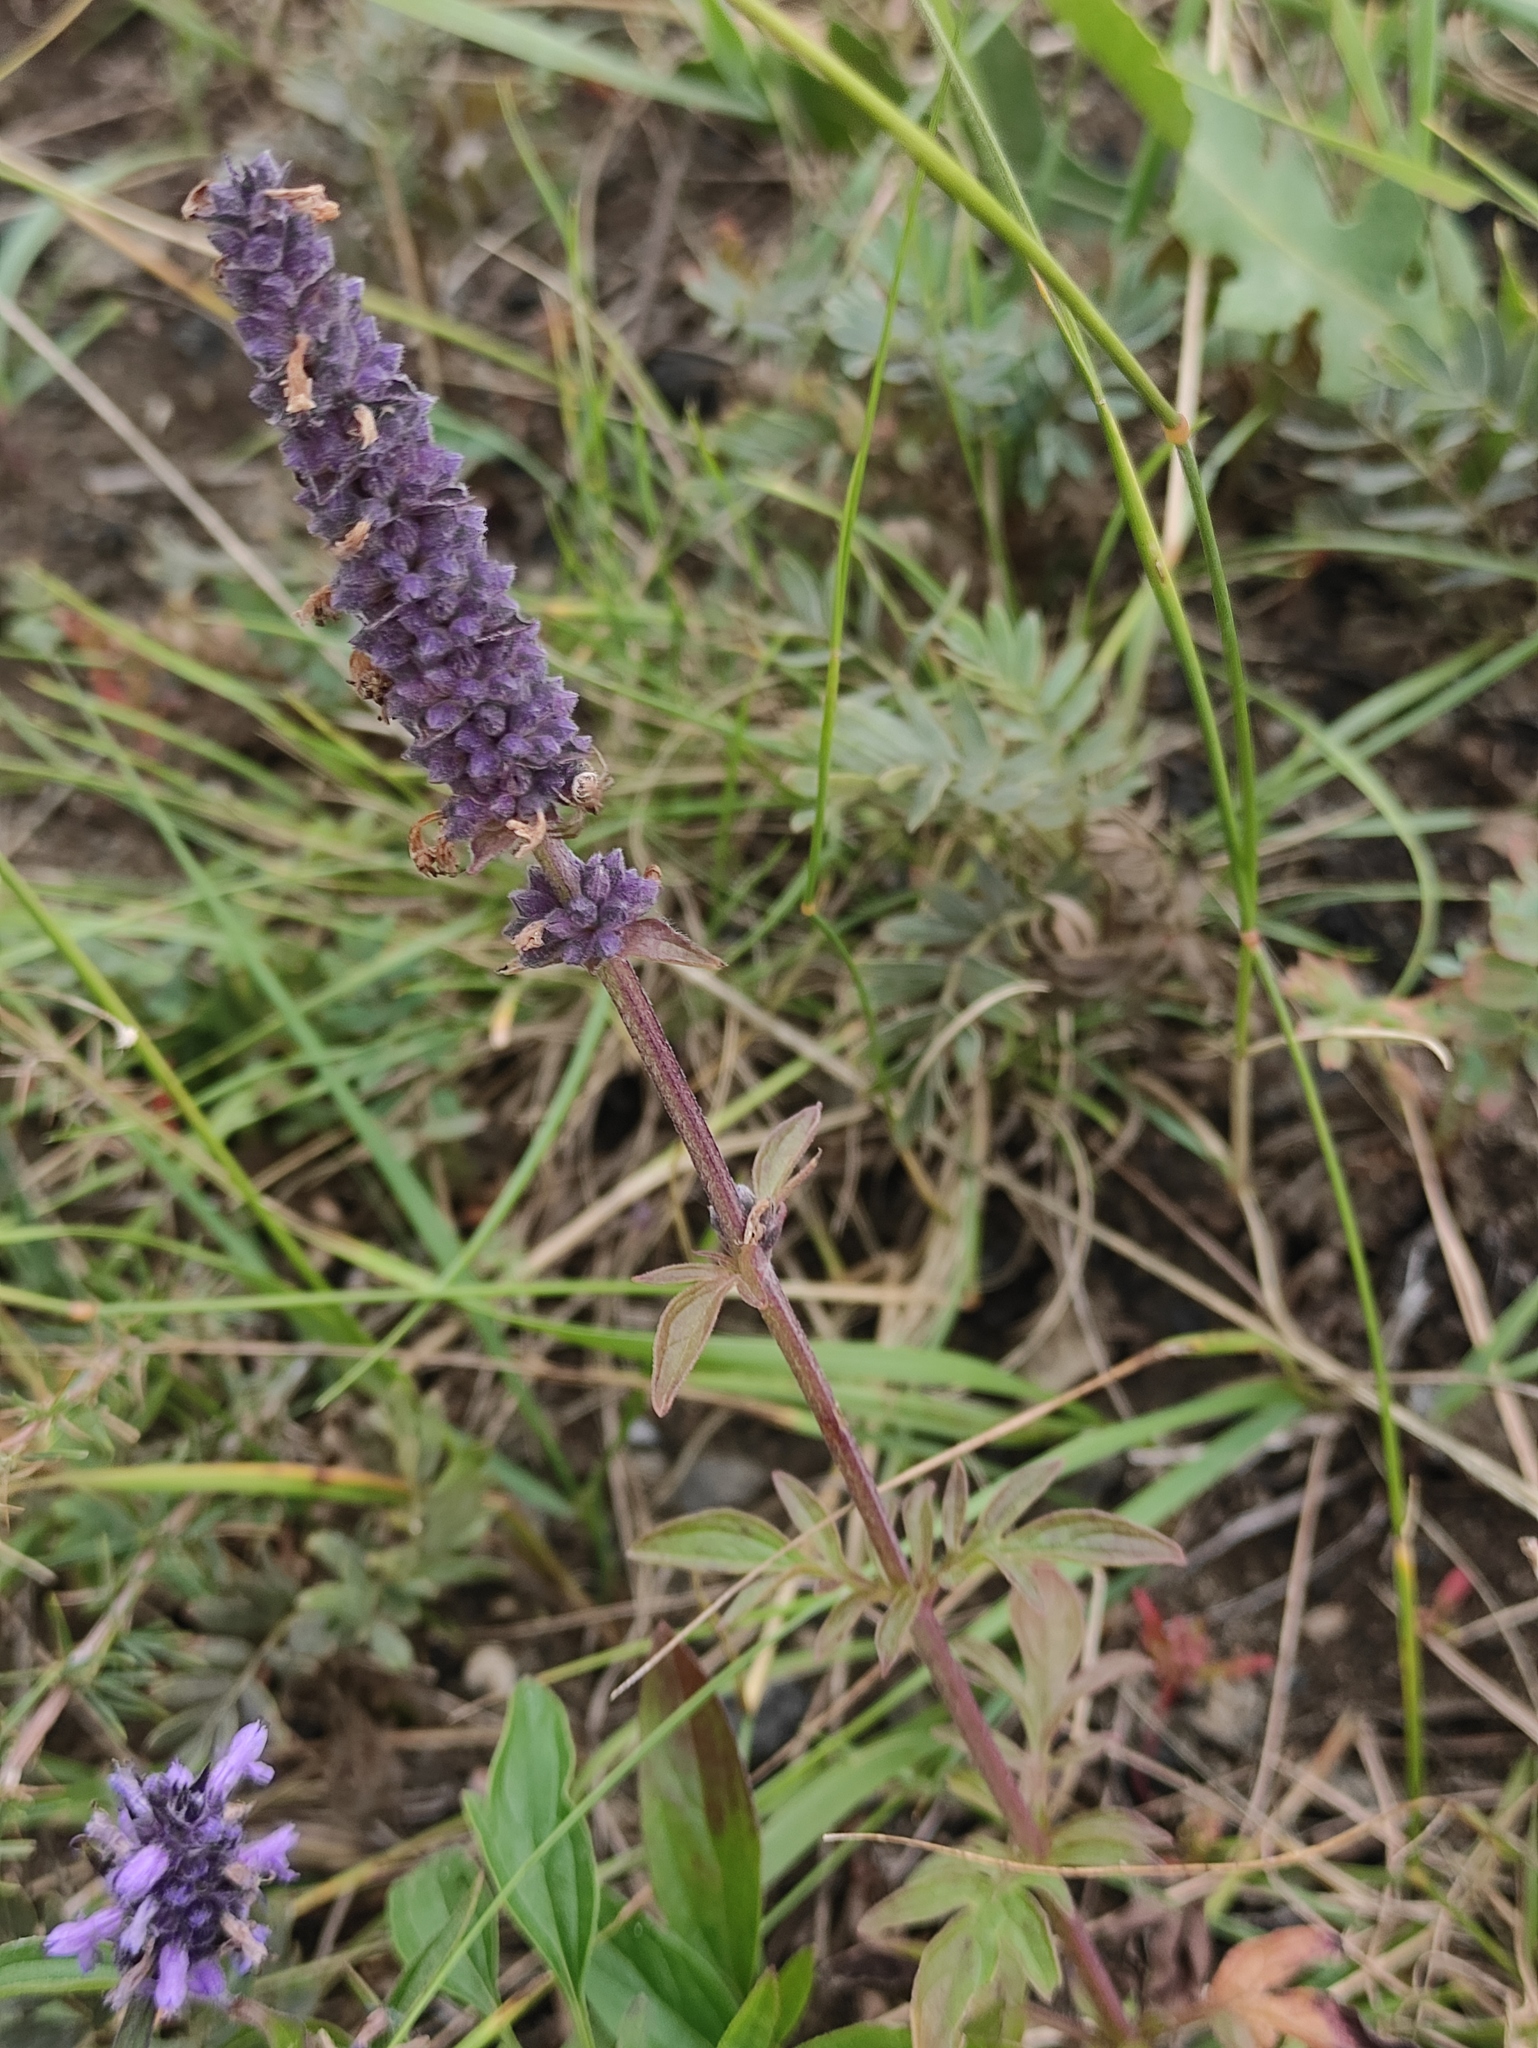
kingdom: Plantae
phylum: Tracheophyta
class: Magnoliopsida
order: Lamiales
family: Lamiaceae
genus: Nepeta
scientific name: Nepeta multifida
